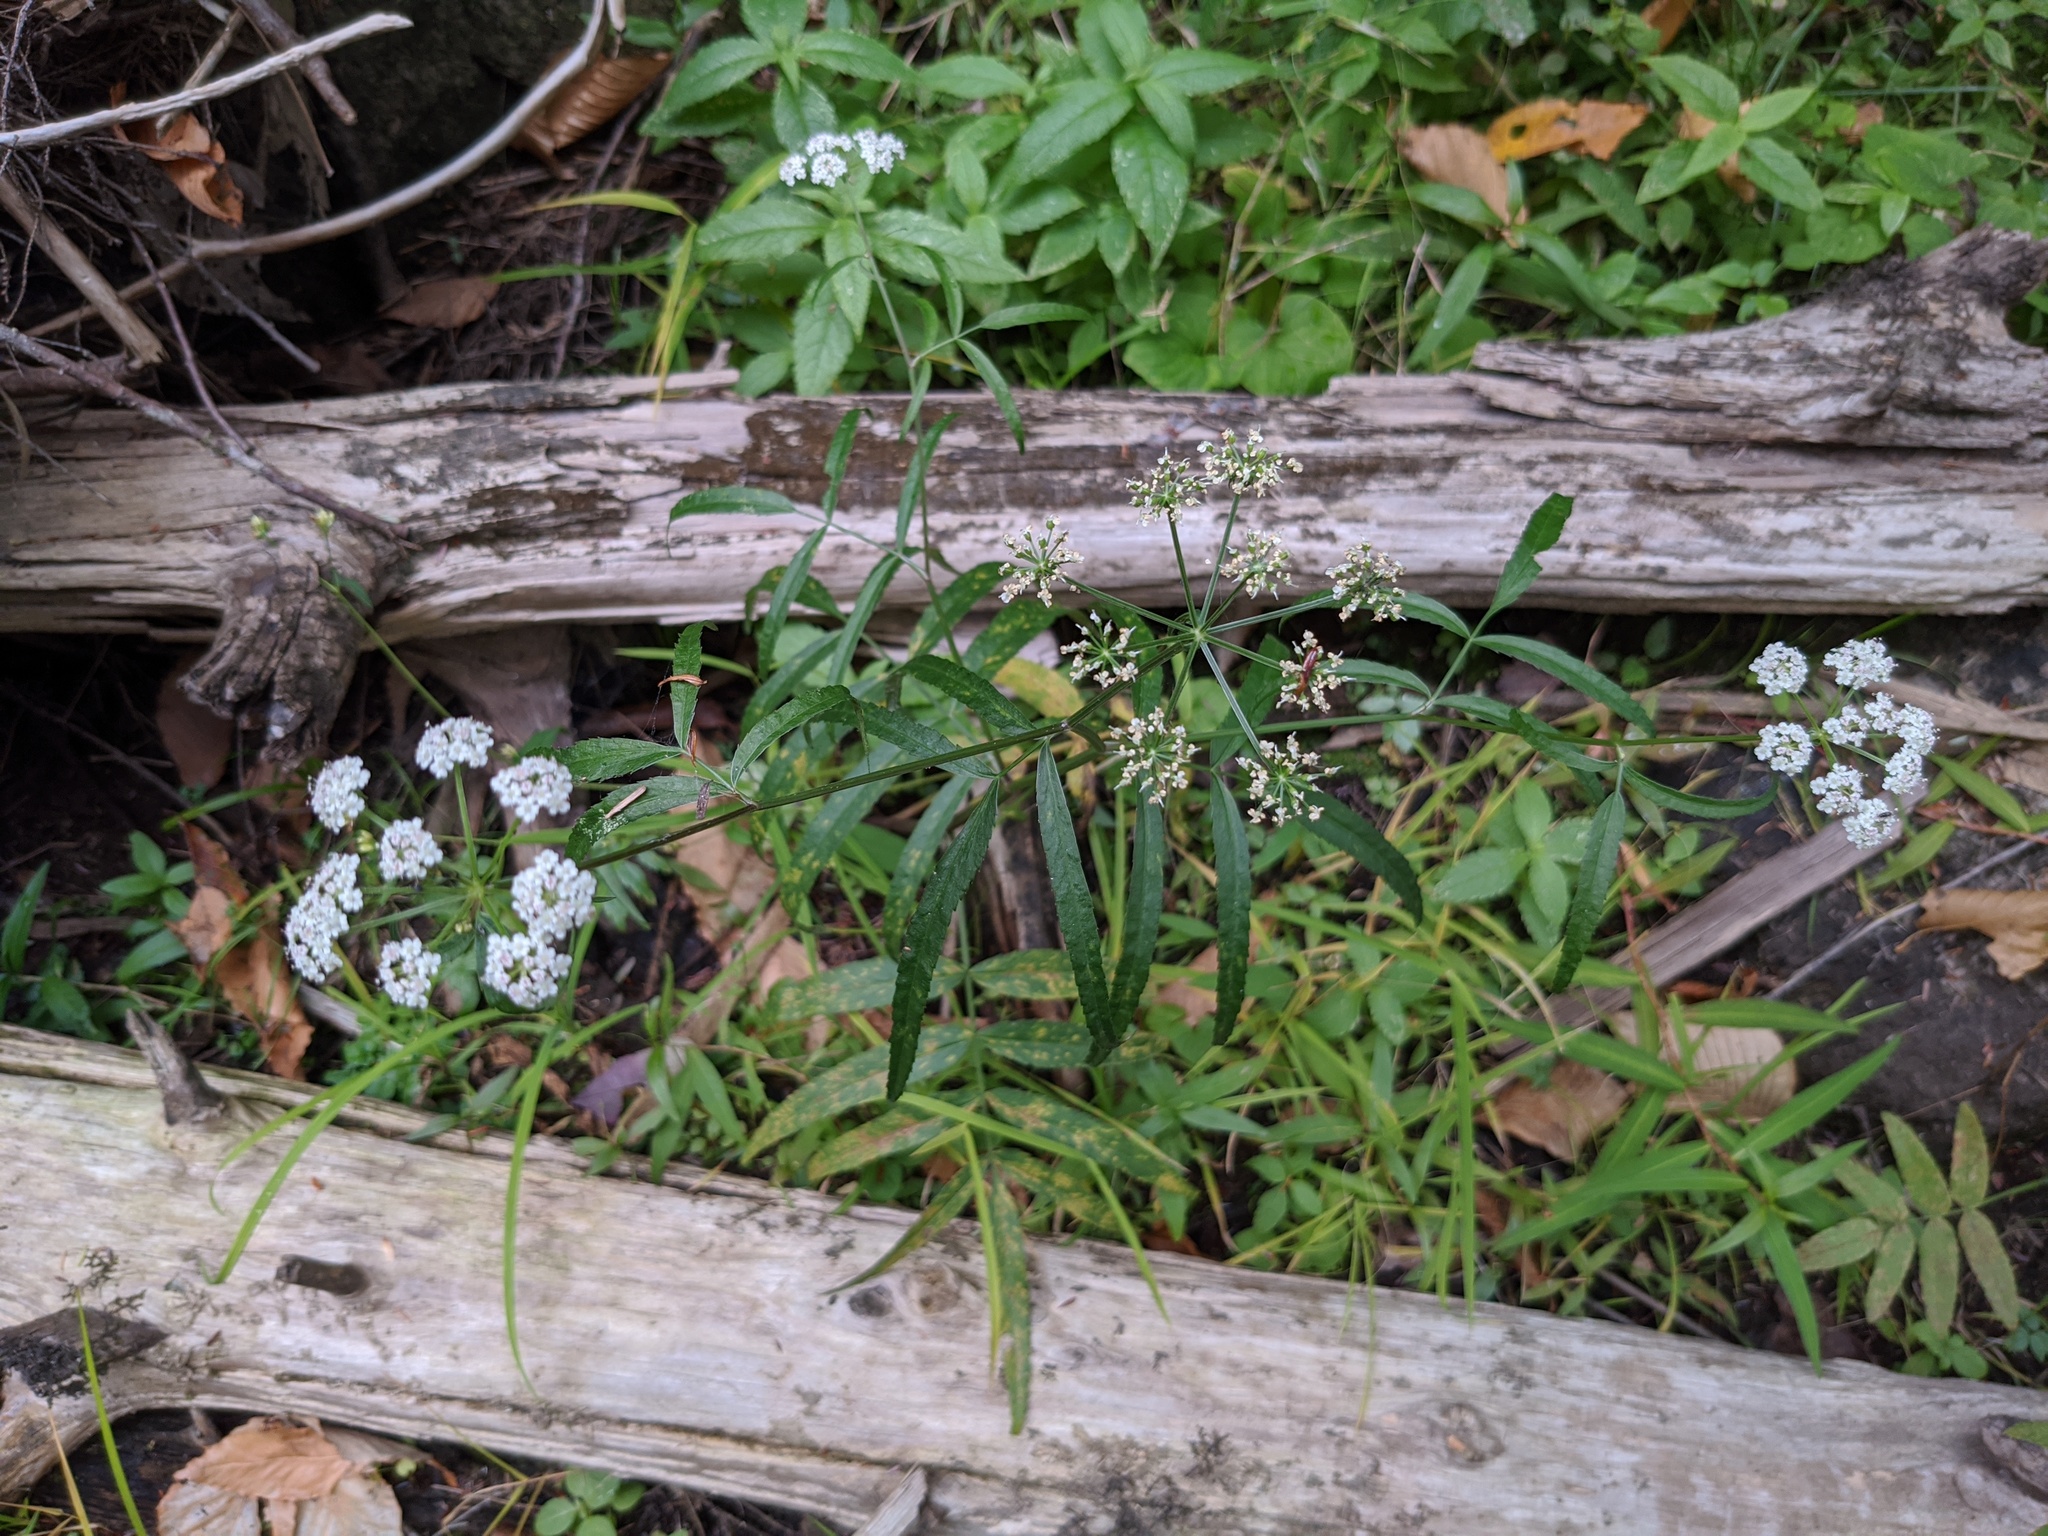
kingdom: Plantae
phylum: Tracheophyta
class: Magnoliopsida
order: Apiales
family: Apiaceae
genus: Sium
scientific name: Sium suave
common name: Hemlock water-parsnip
